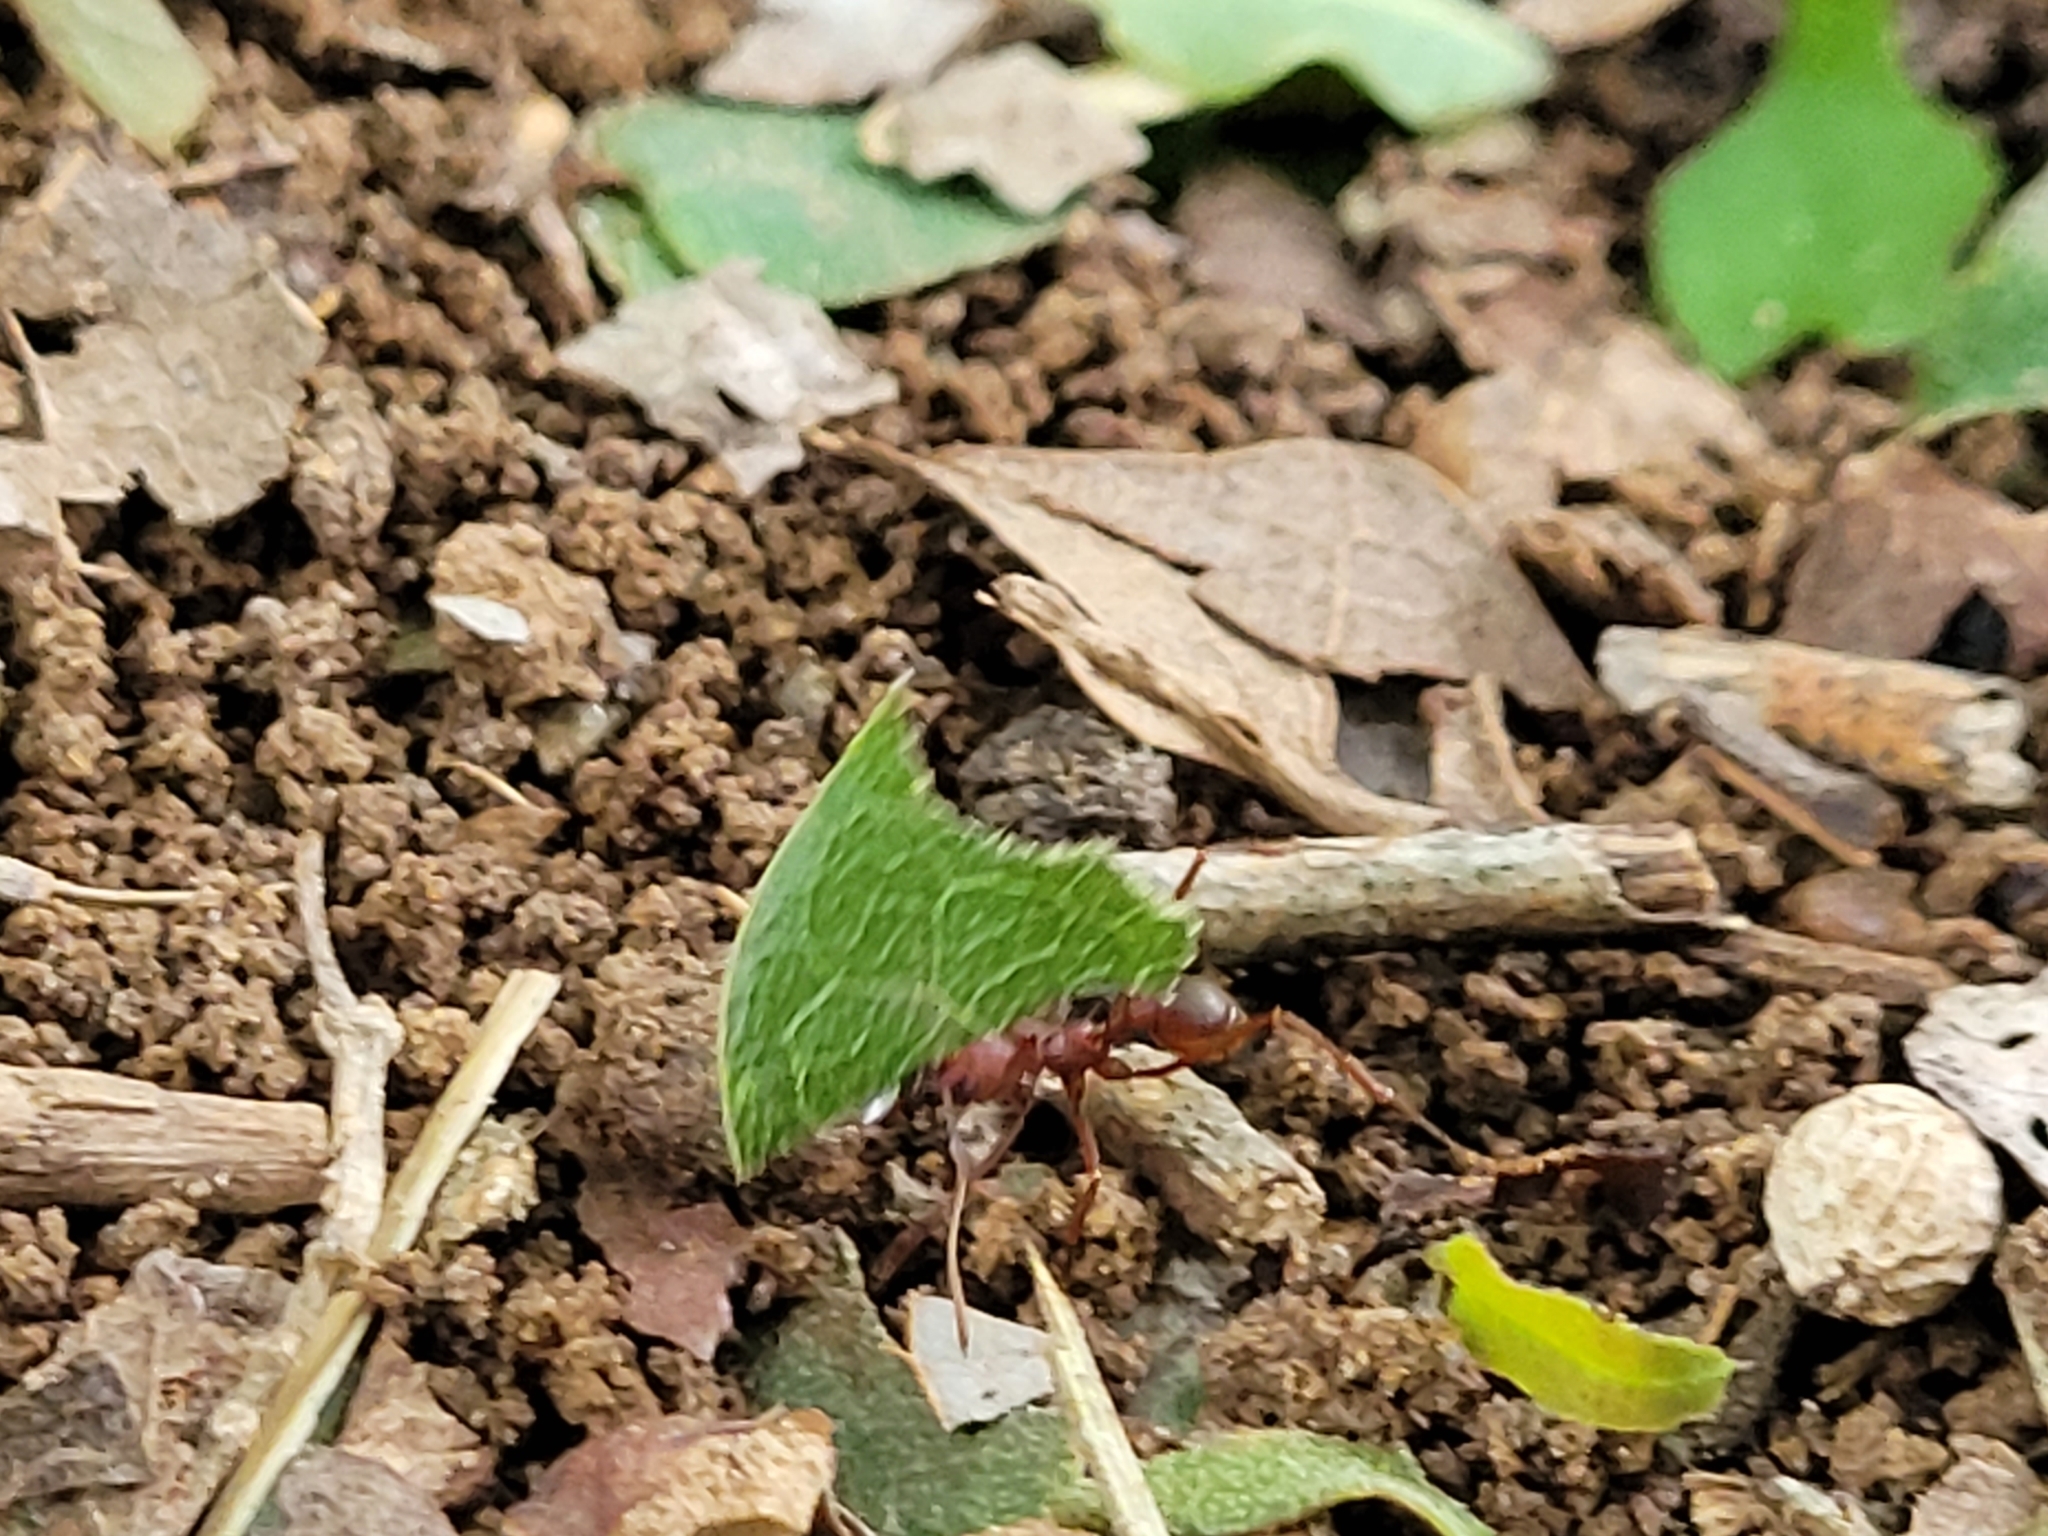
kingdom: Animalia
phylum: Arthropoda
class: Insecta
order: Hymenoptera
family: Formicidae
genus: Atta
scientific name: Atta texana
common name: Texas leafcutting ant
